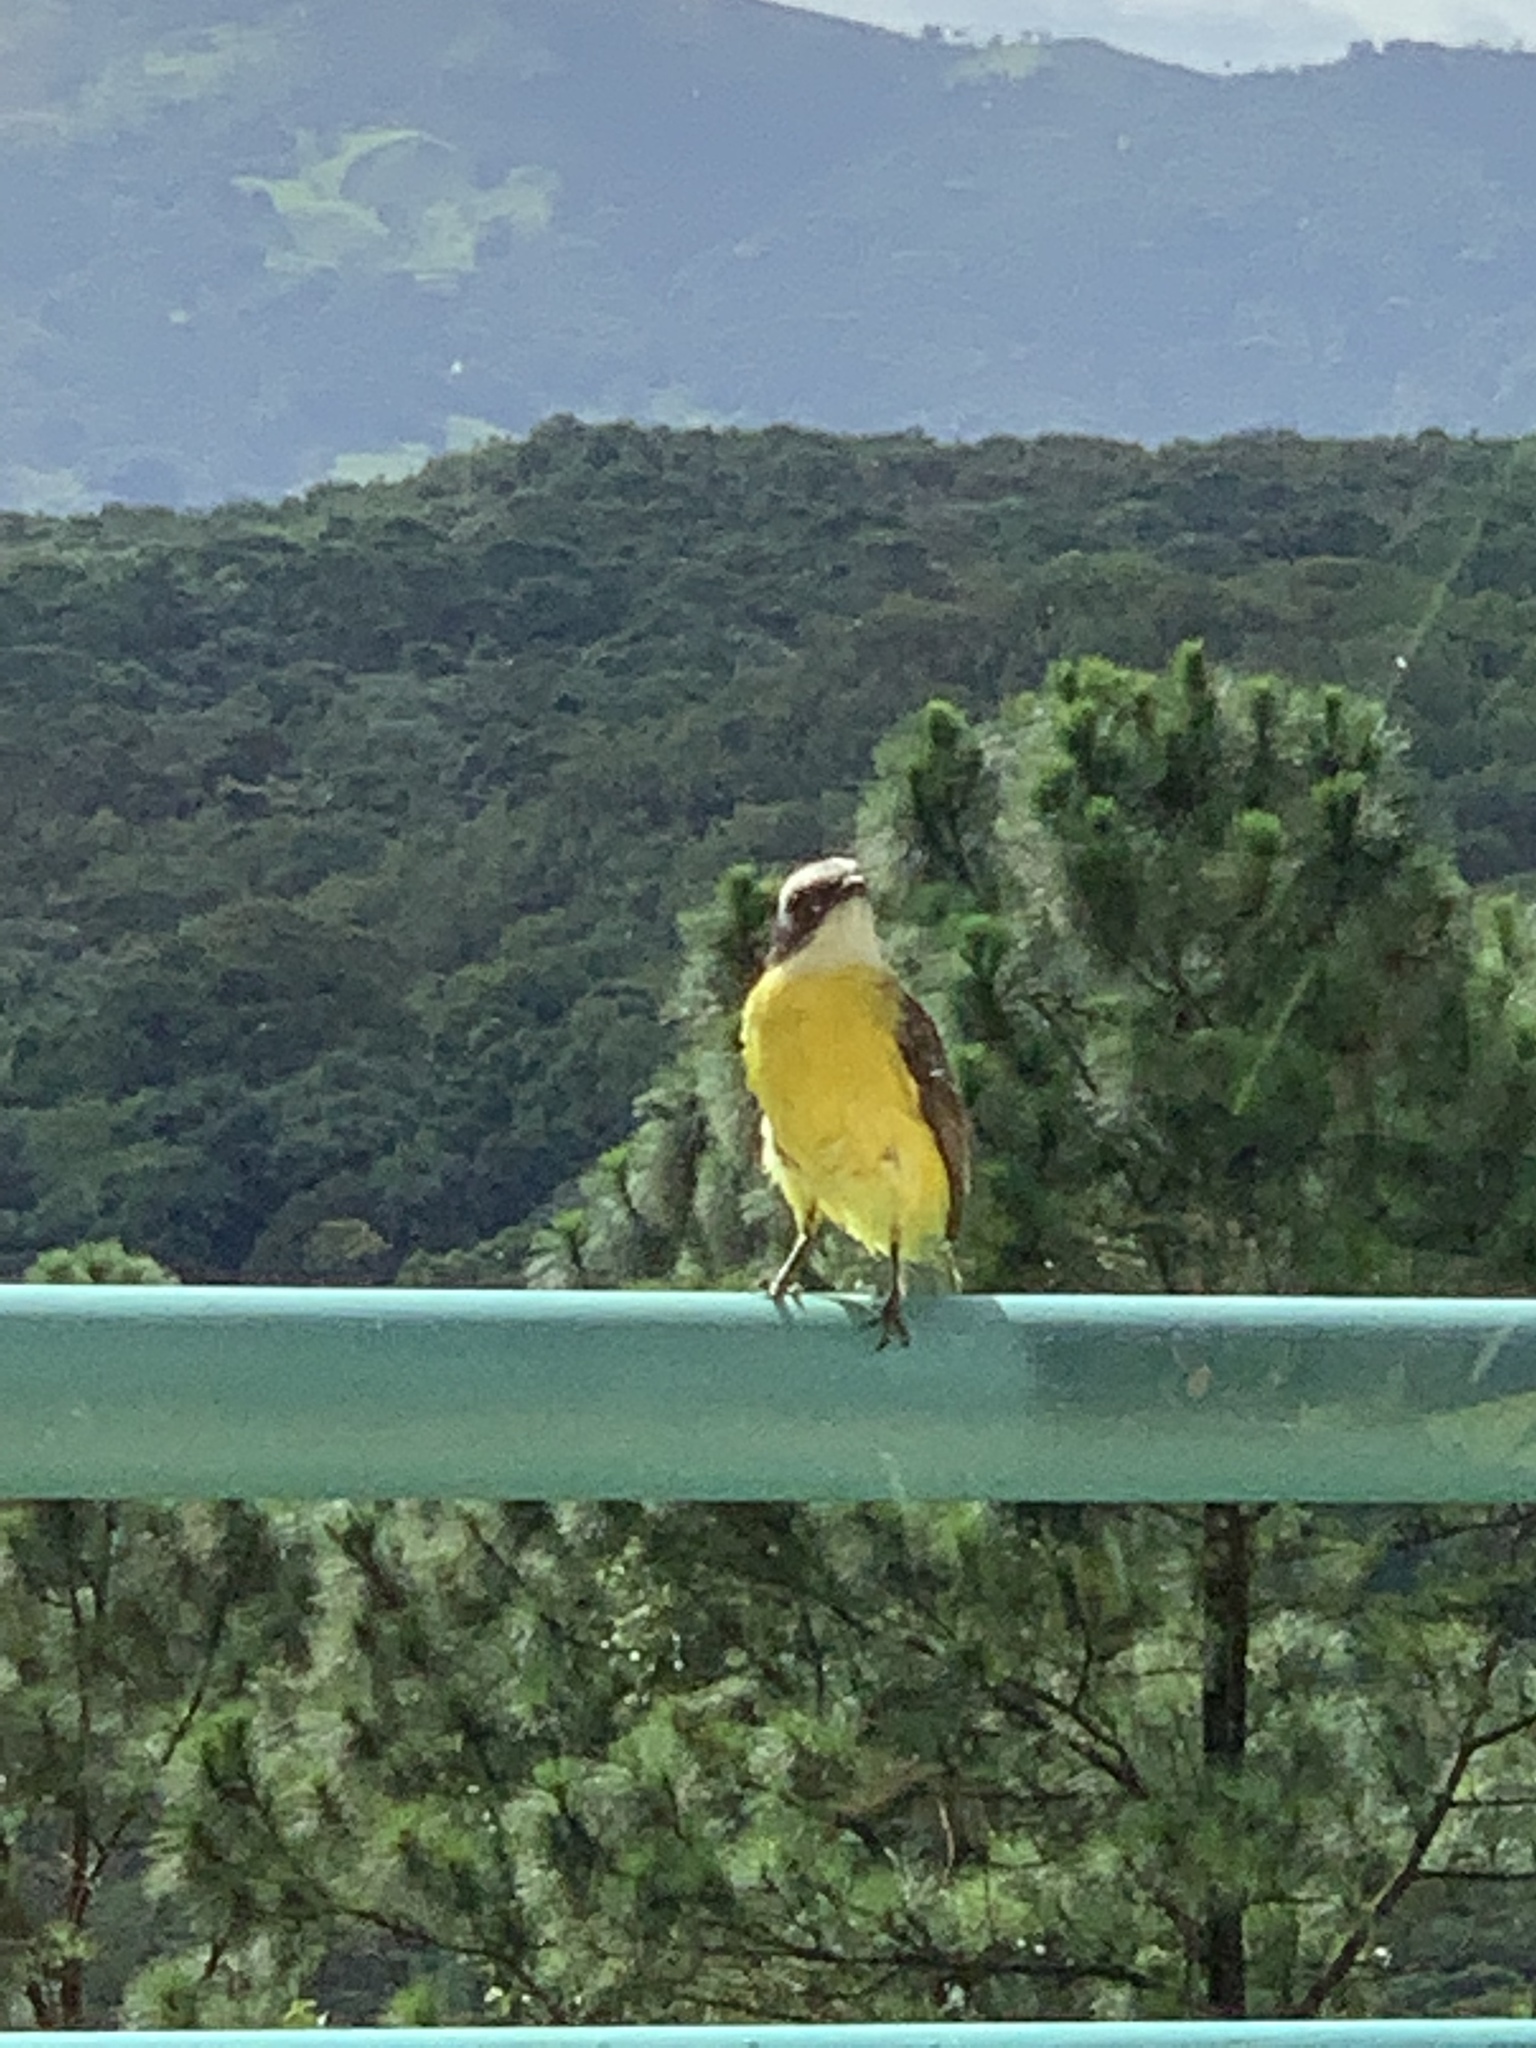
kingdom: Animalia
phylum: Chordata
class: Aves
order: Passeriformes
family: Tyrannidae
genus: Myiozetetes
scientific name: Myiozetetes similis
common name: Social flycatcher
